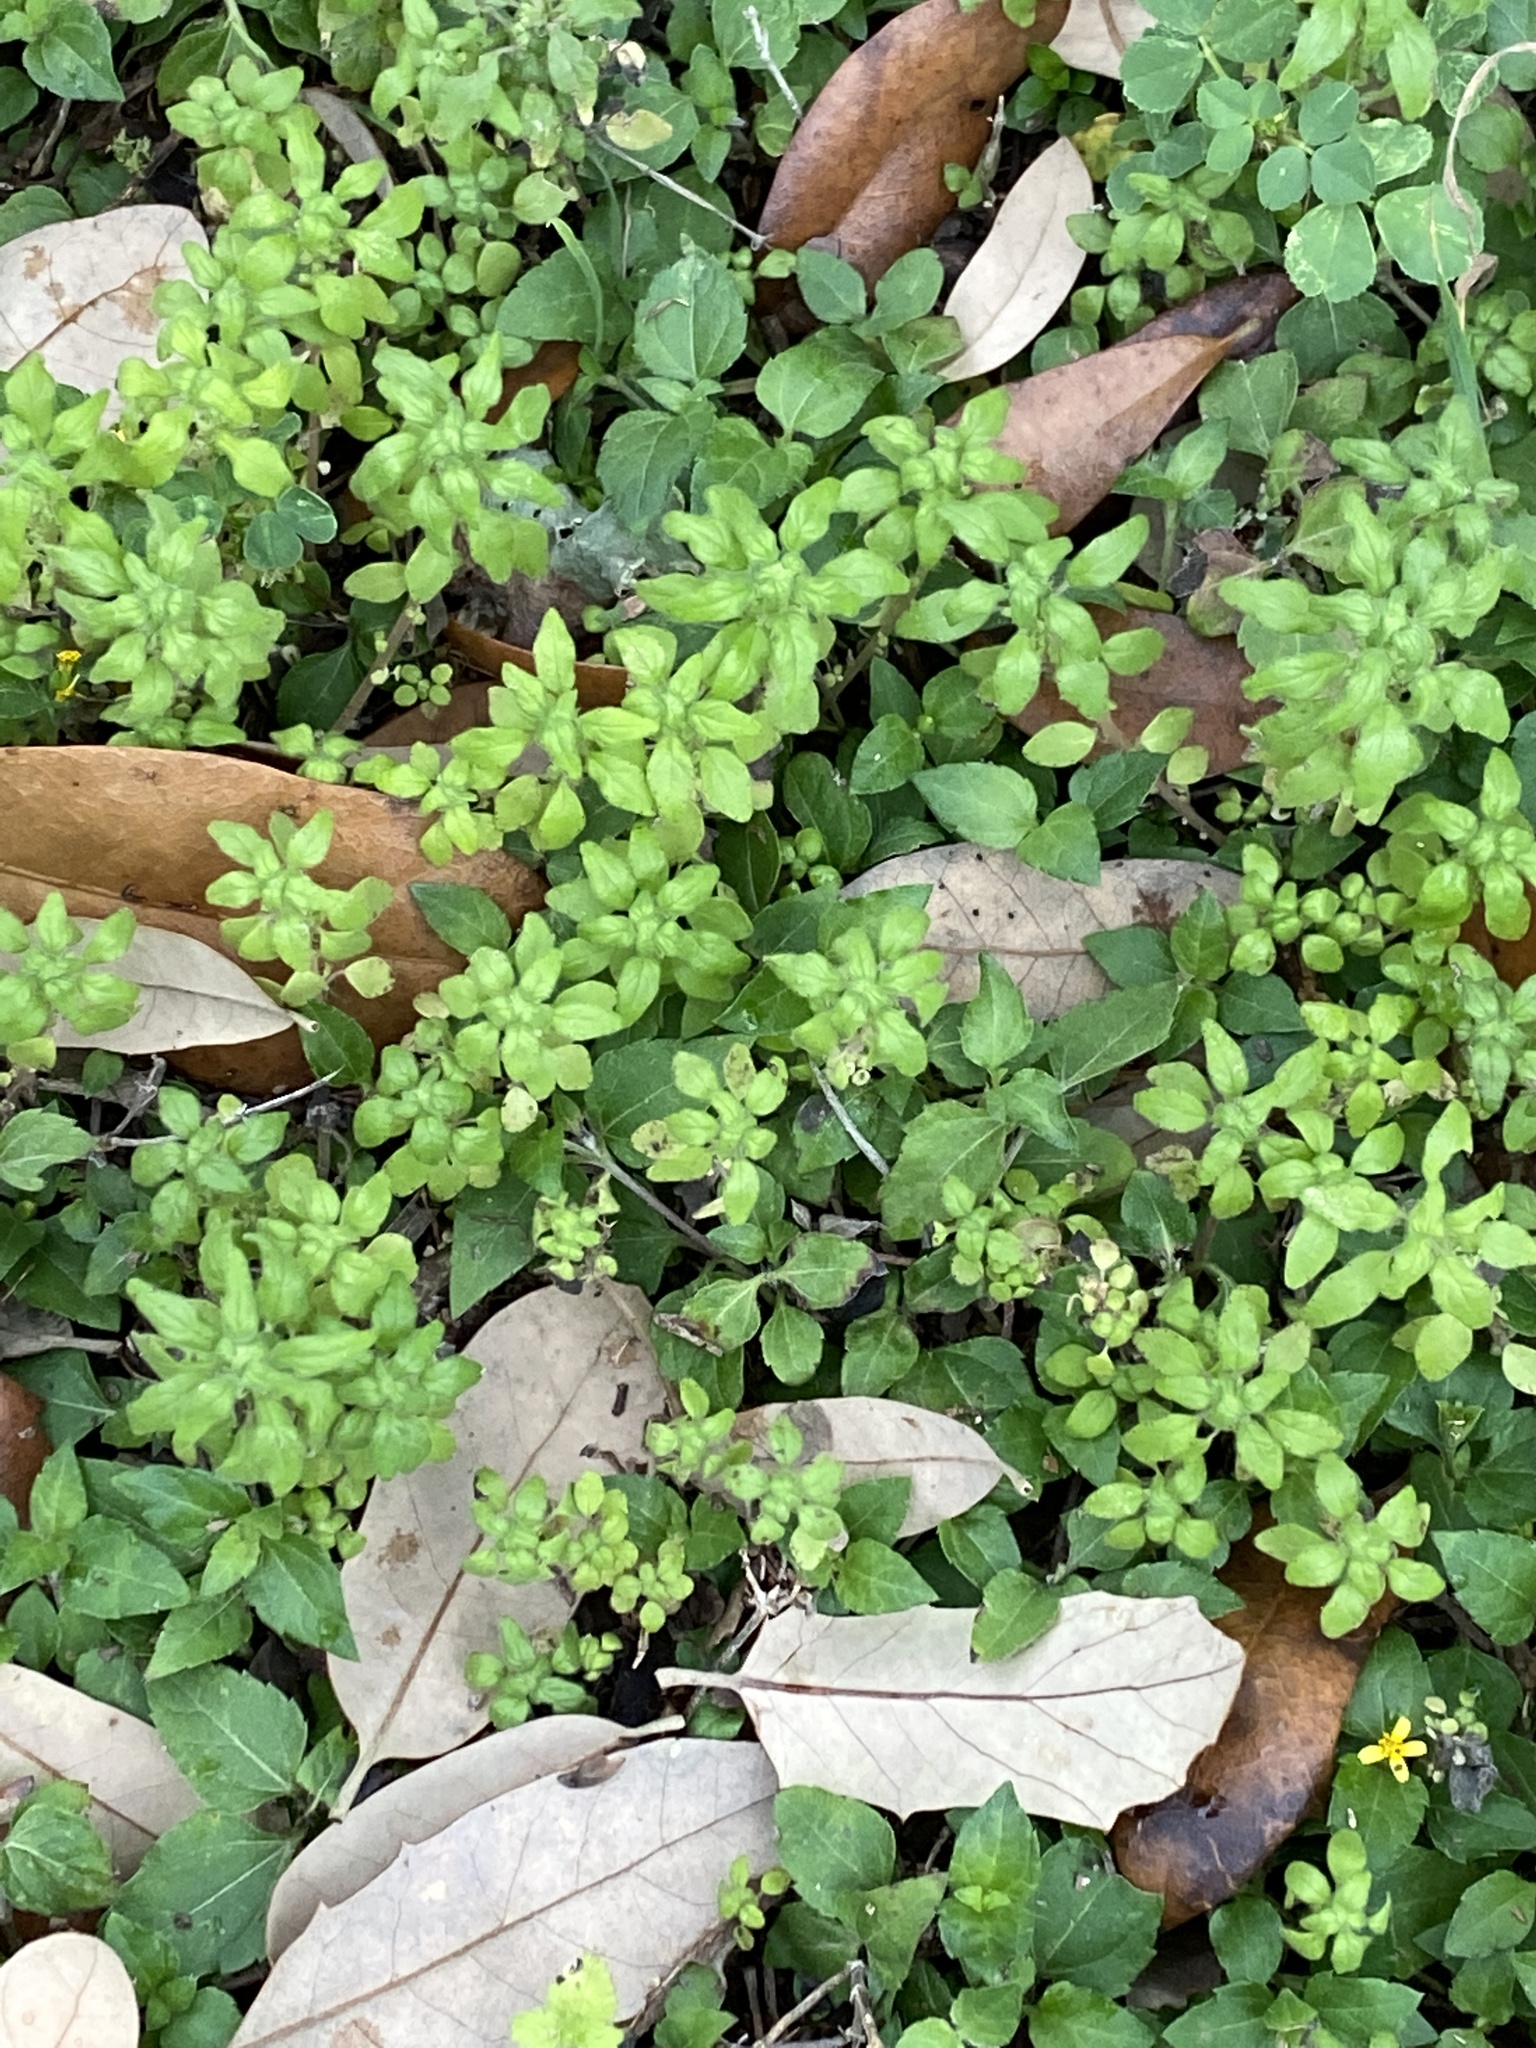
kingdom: Plantae
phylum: Tracheophyta
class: Magnoliopsida
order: Rosales
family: Urticaceae
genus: Parietaria
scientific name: Parietaria pensylvanica
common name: Pennsylvania pellitory
